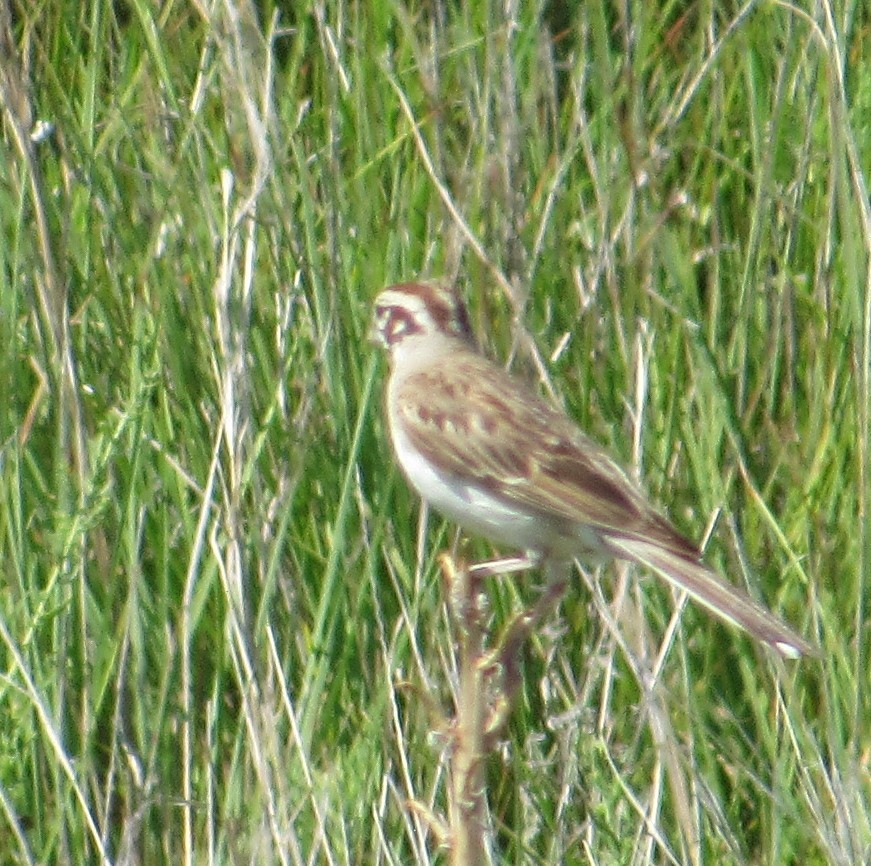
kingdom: Animalia
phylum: Chordata
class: Aves
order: Passeriformes
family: Passerellidae
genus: Chondestes
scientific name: Chondestes grammacus
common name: Lark sparrow
